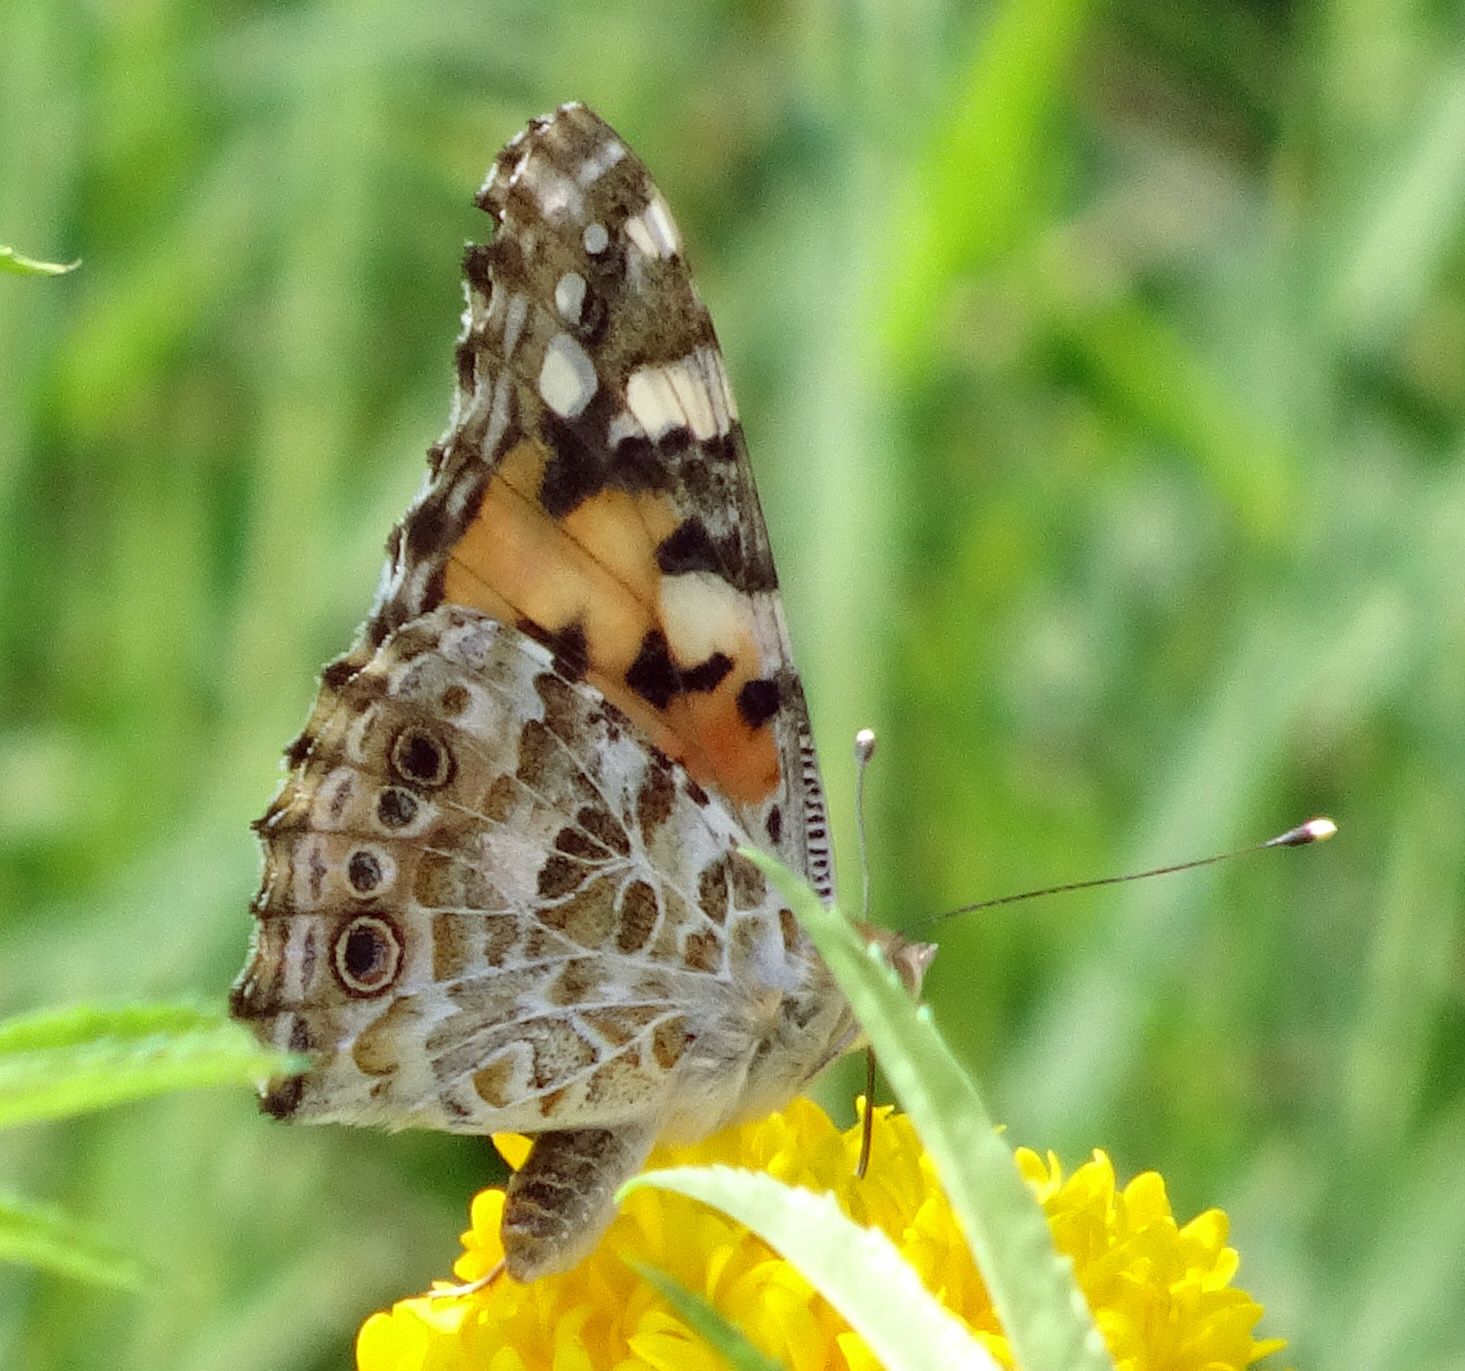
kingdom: Animalia
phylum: Arthropoda
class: Insecta
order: Lepidoptera
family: Nymphalidae
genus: Vanessa
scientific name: Vanessa cardui
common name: Painted lady
